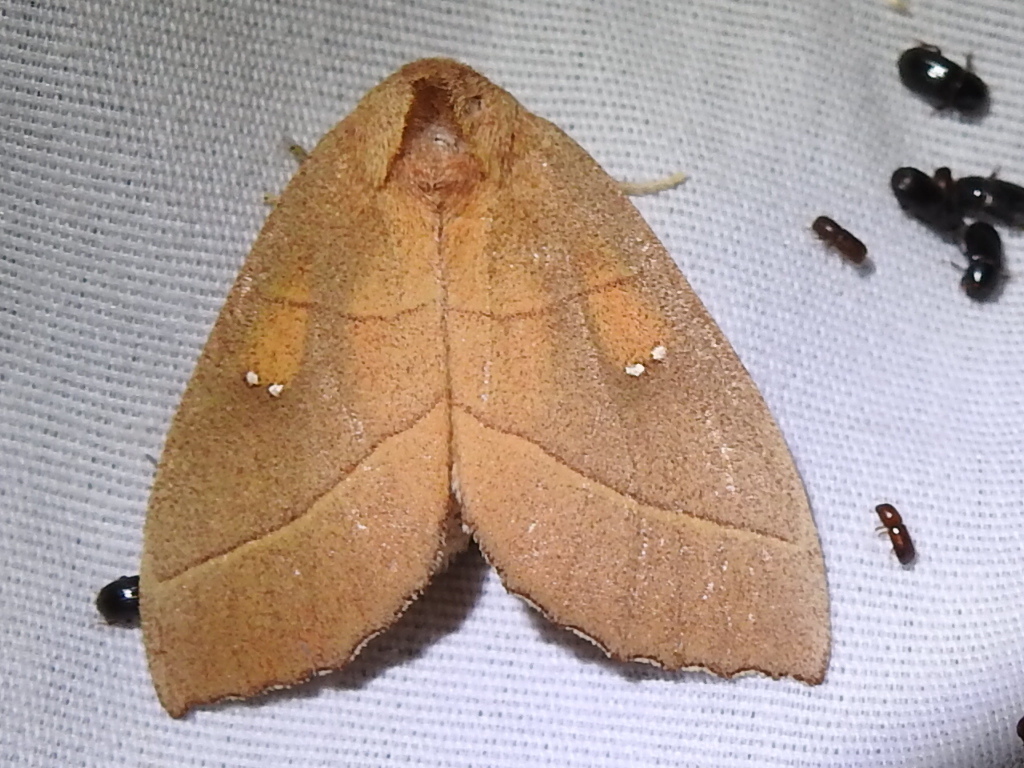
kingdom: Animalia
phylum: Arthropoda
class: Insecta
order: Lepidoptera
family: Notodontidae
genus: Nadata
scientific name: Nadata gibbosa
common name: White-dotted prominent
